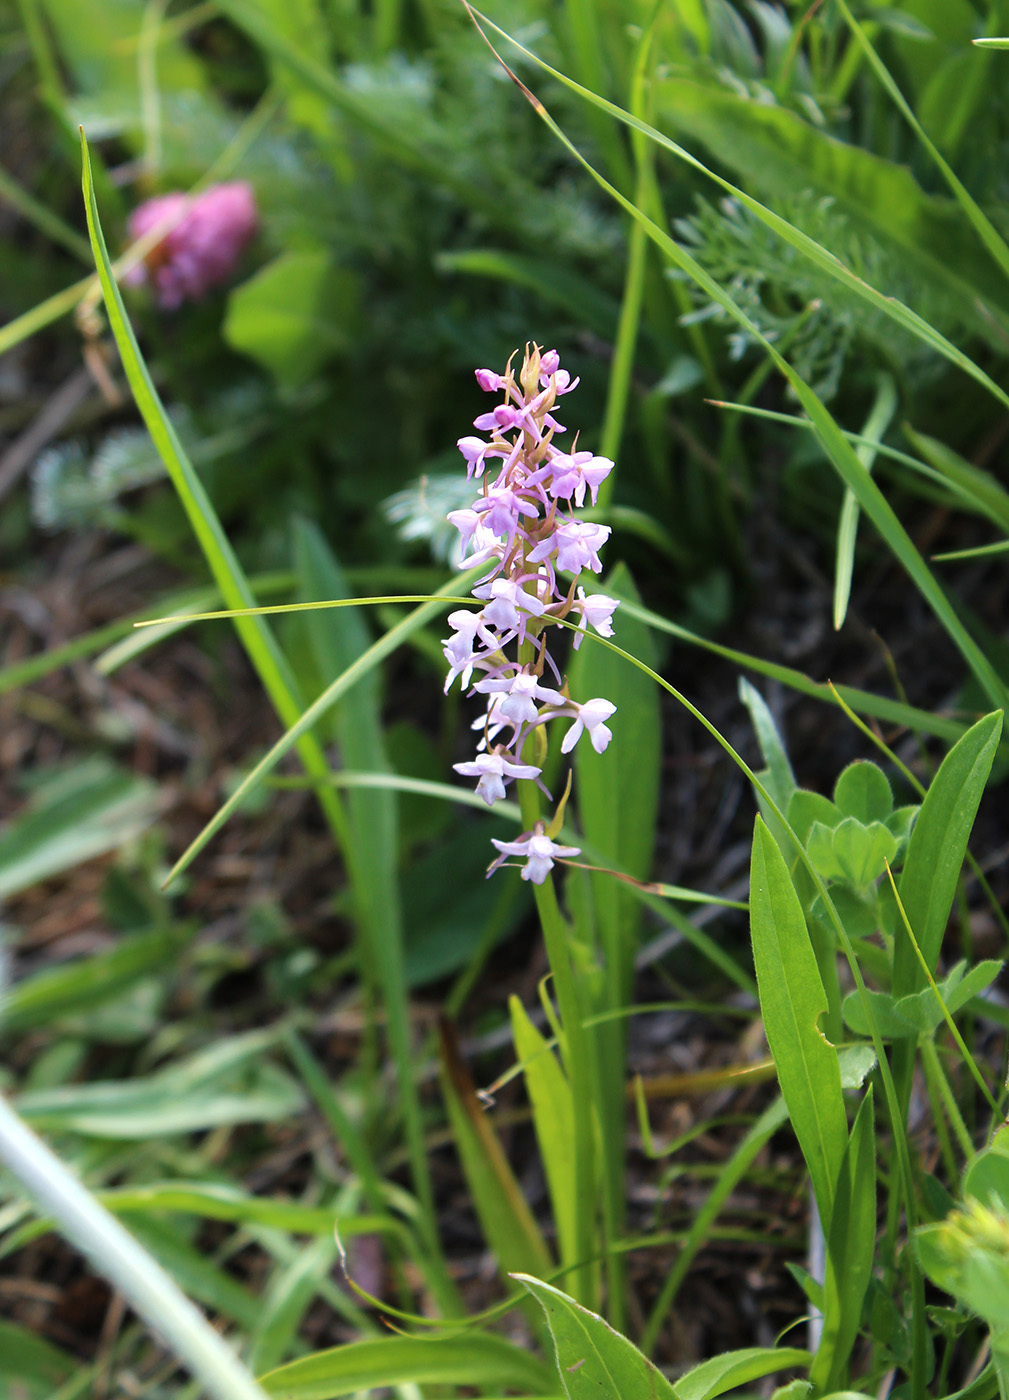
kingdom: Plantae
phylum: Tracheophyta
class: Liliopsida
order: Asparagales
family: Orchidaceae
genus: Gymnadenia
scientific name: Gymnadenia conopsea
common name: Fragrant orchid
